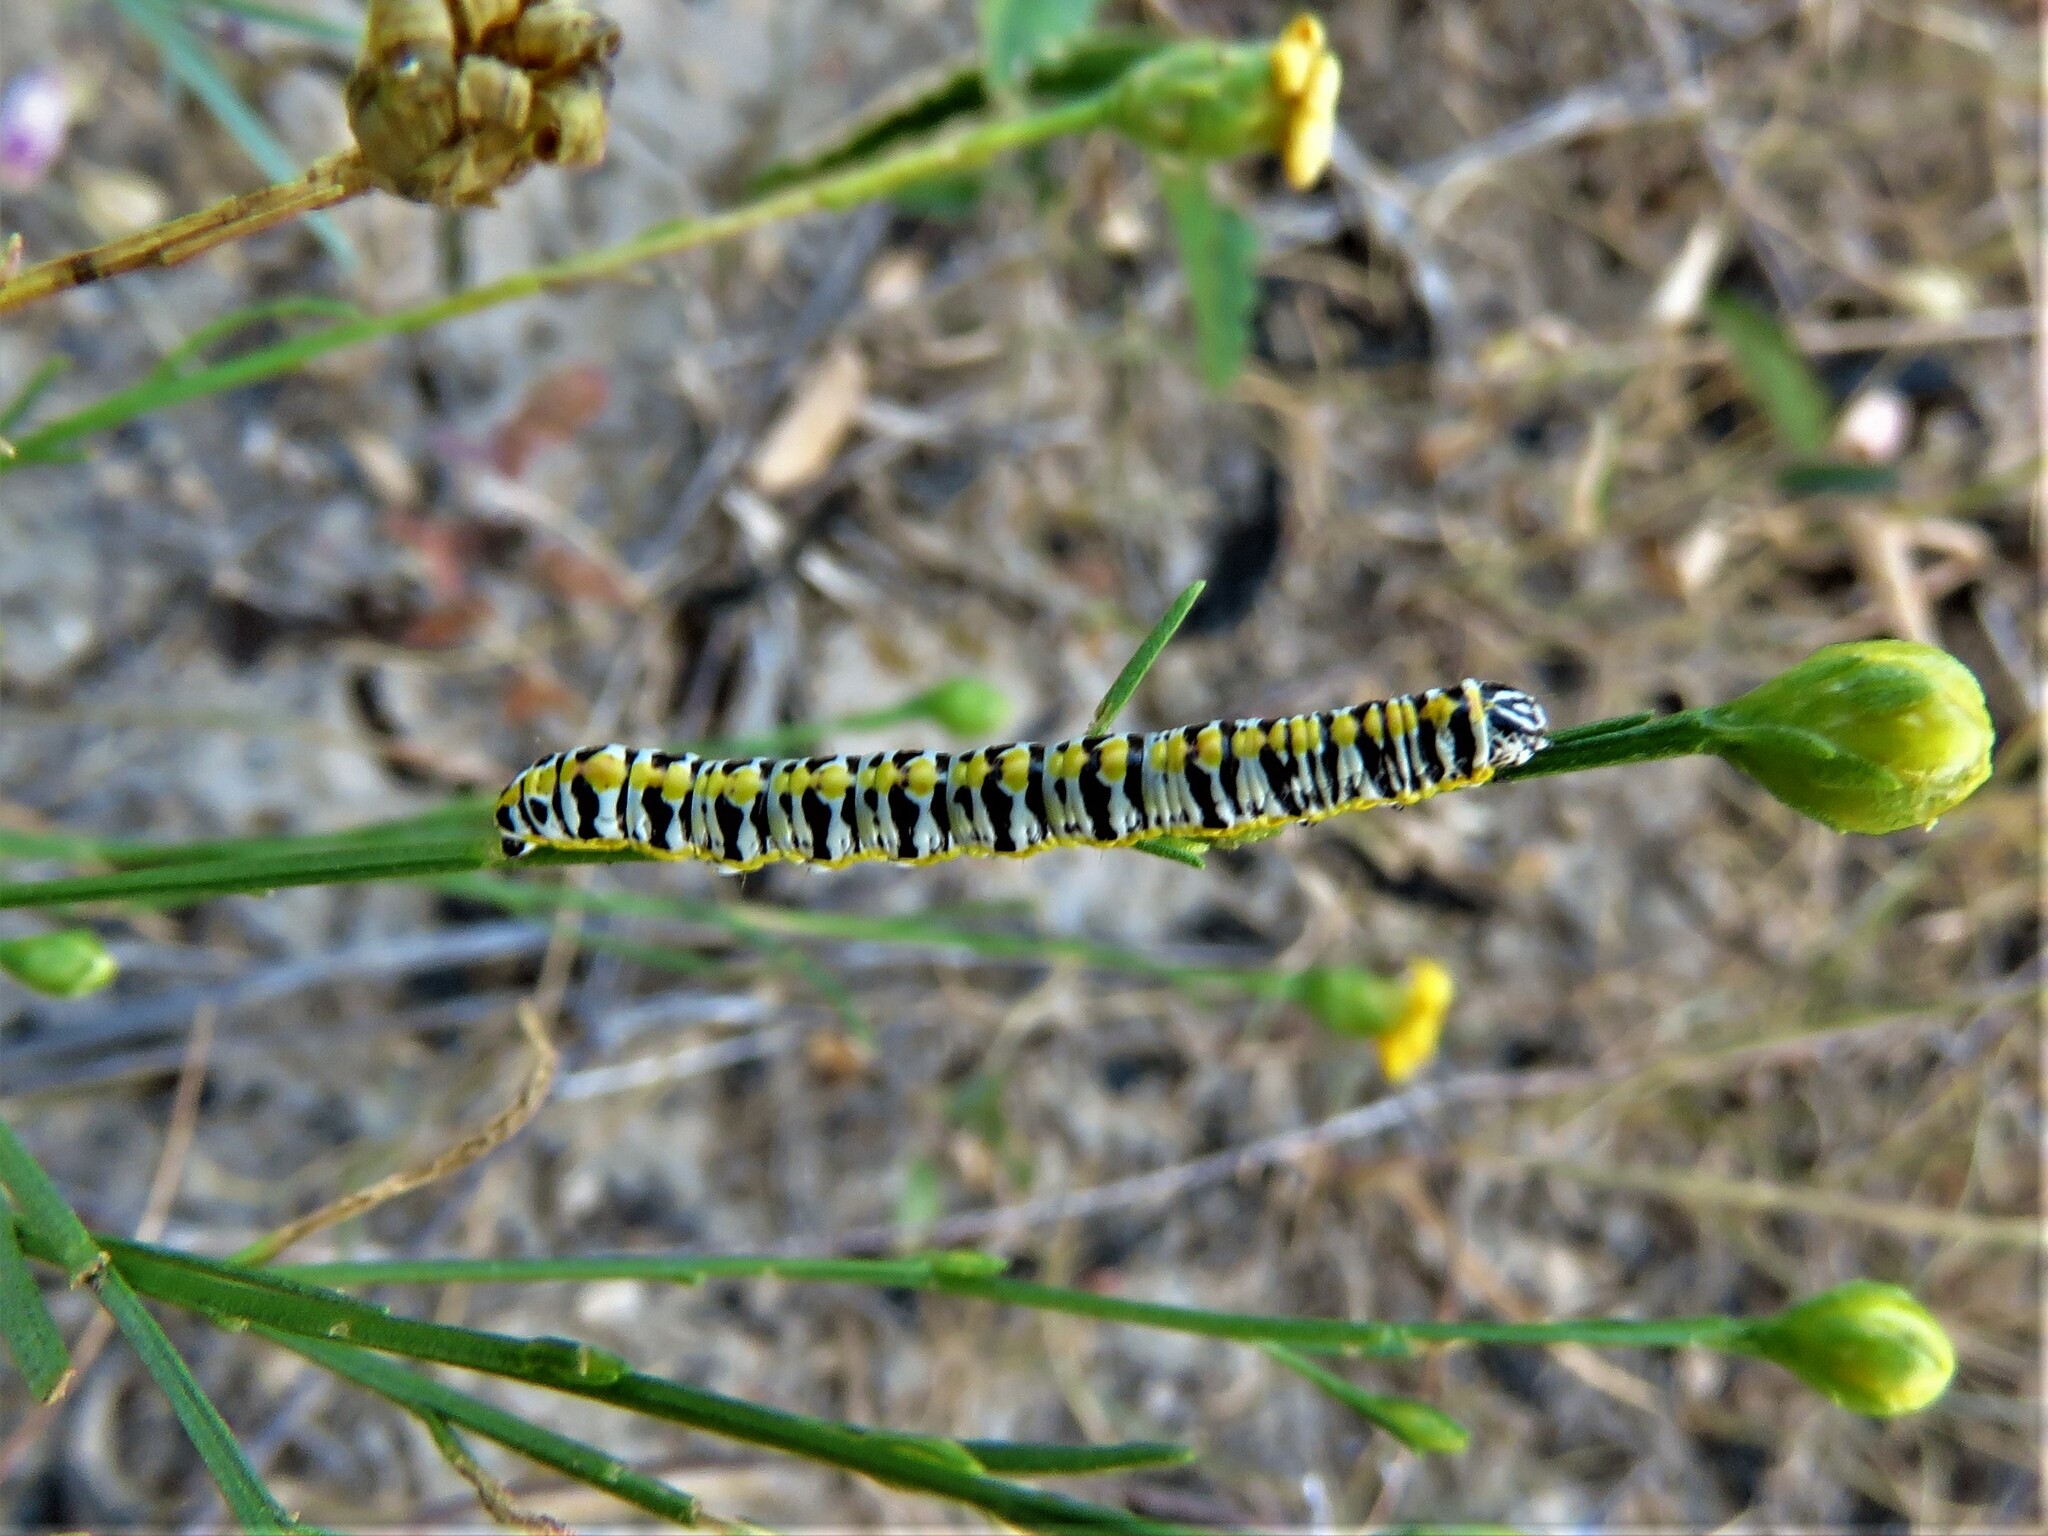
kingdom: Animalia
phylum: Arthropoda
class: Insecta
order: Lepidoptera
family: Noctuidae
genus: Cucullia
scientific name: Cucullia laetifica
